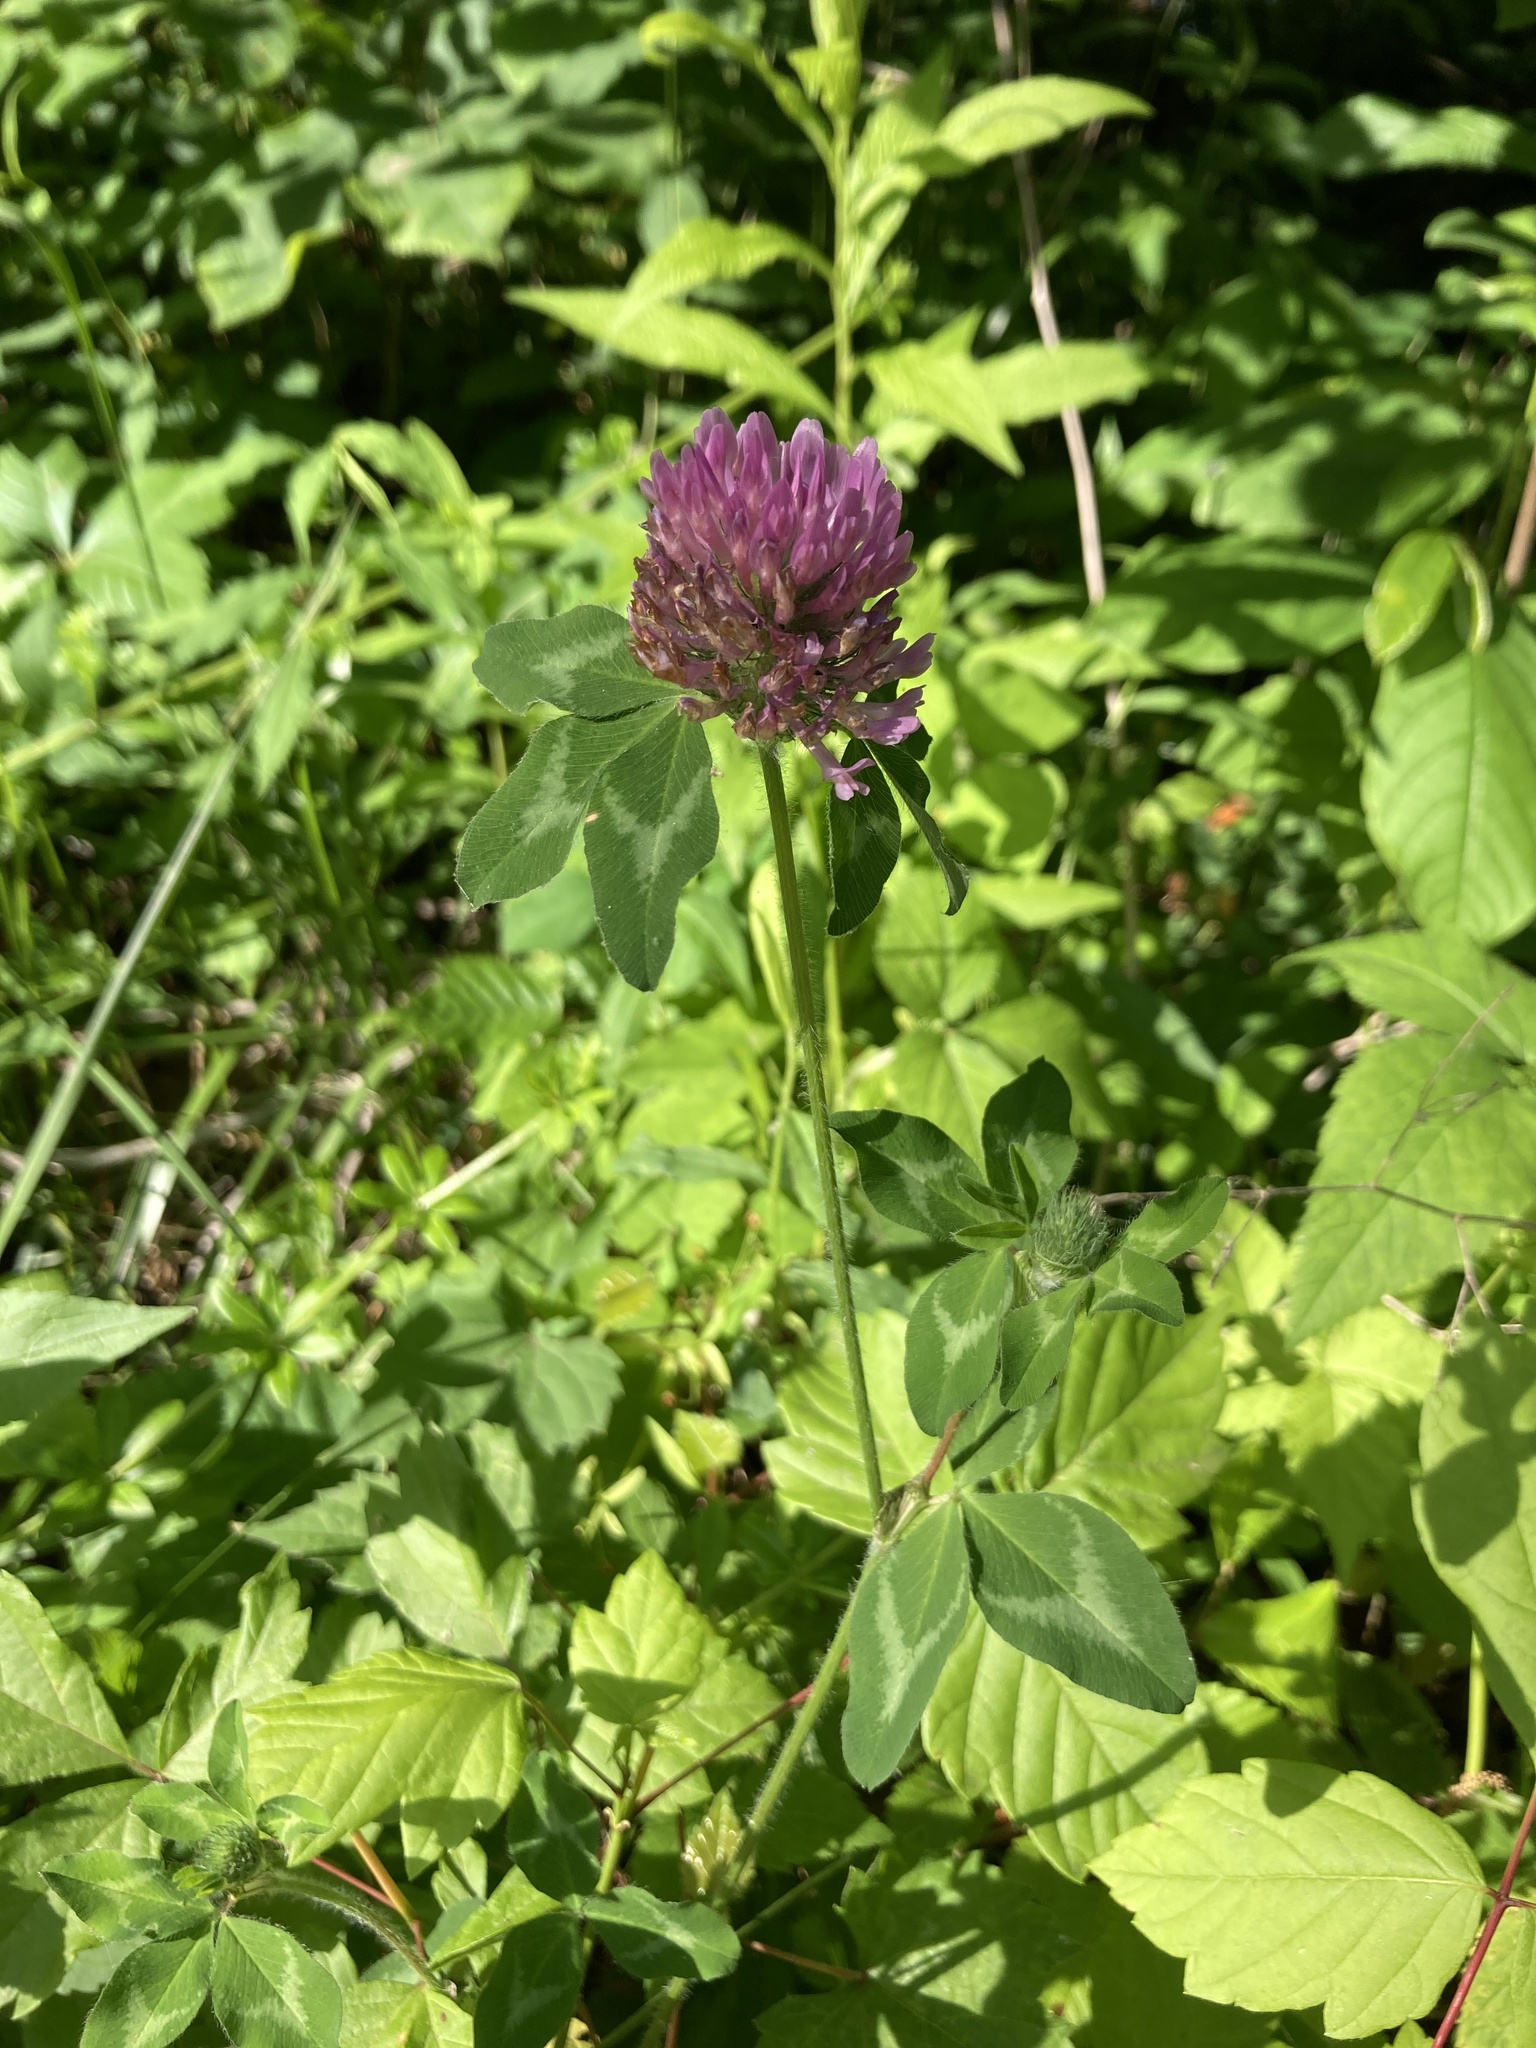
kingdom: Plantae
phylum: Tracheophyta
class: Magnoliopsida
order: Fabales
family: Fabaceae
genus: Trifolium
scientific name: Trifolium pratense
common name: Red clover
